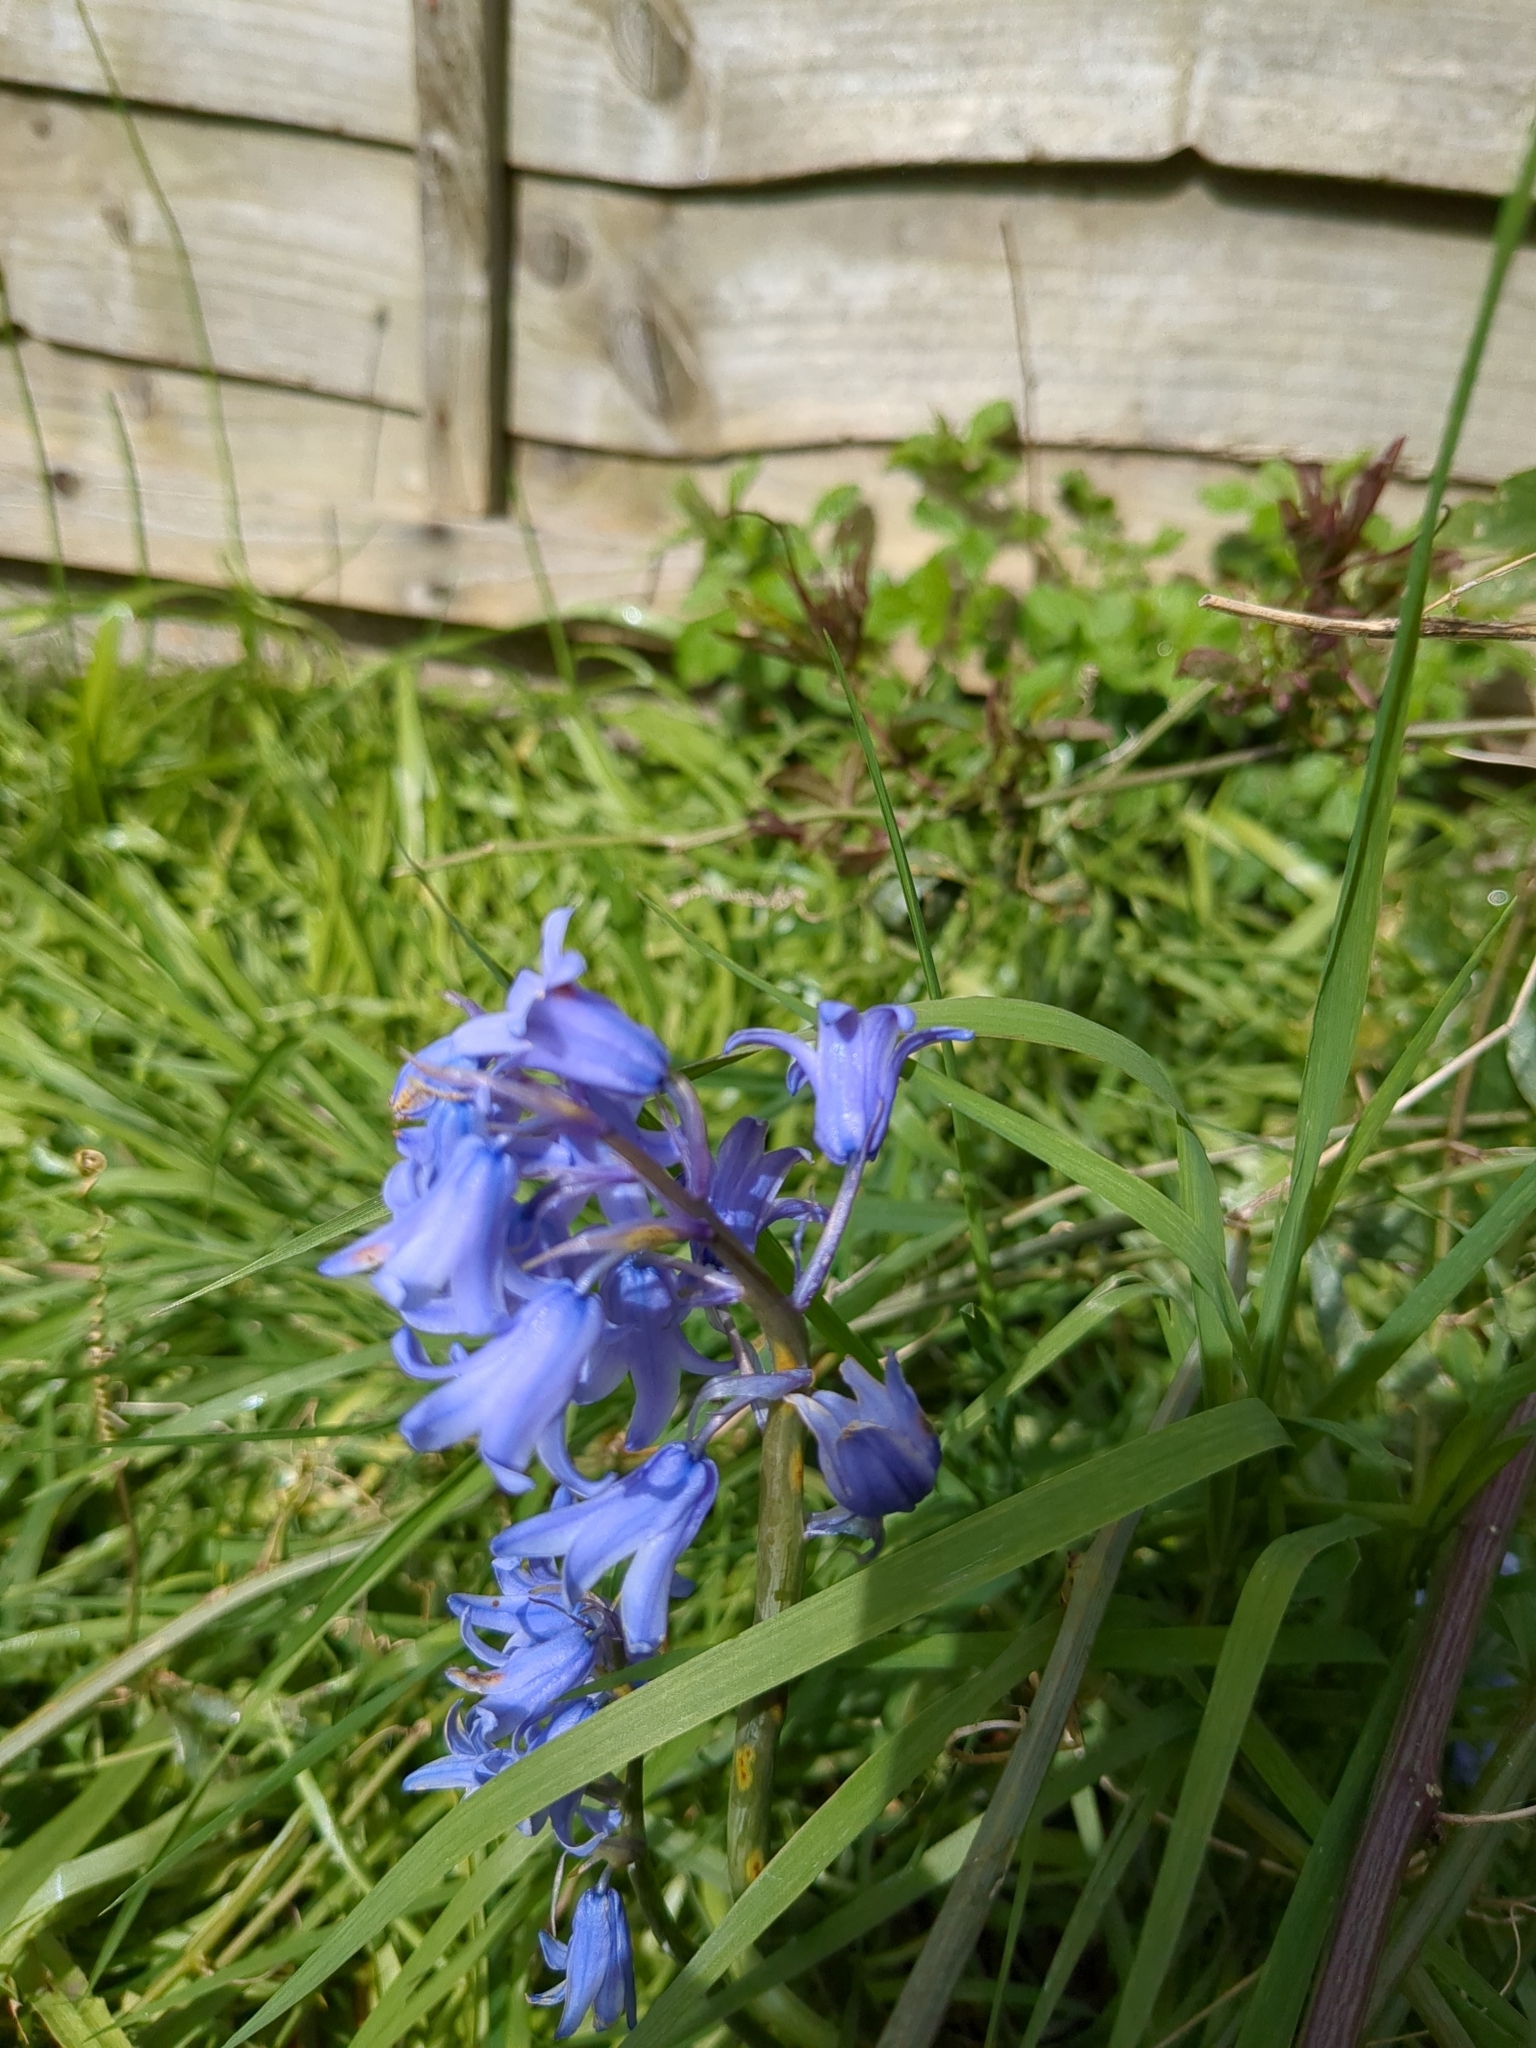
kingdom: Plantae
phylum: Tracheophyta
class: Liliopsida
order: Asparagales
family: Asparagaceae
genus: Hyacinthoides
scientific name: Hyacinthoides hispanica
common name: Spanish bluebell
